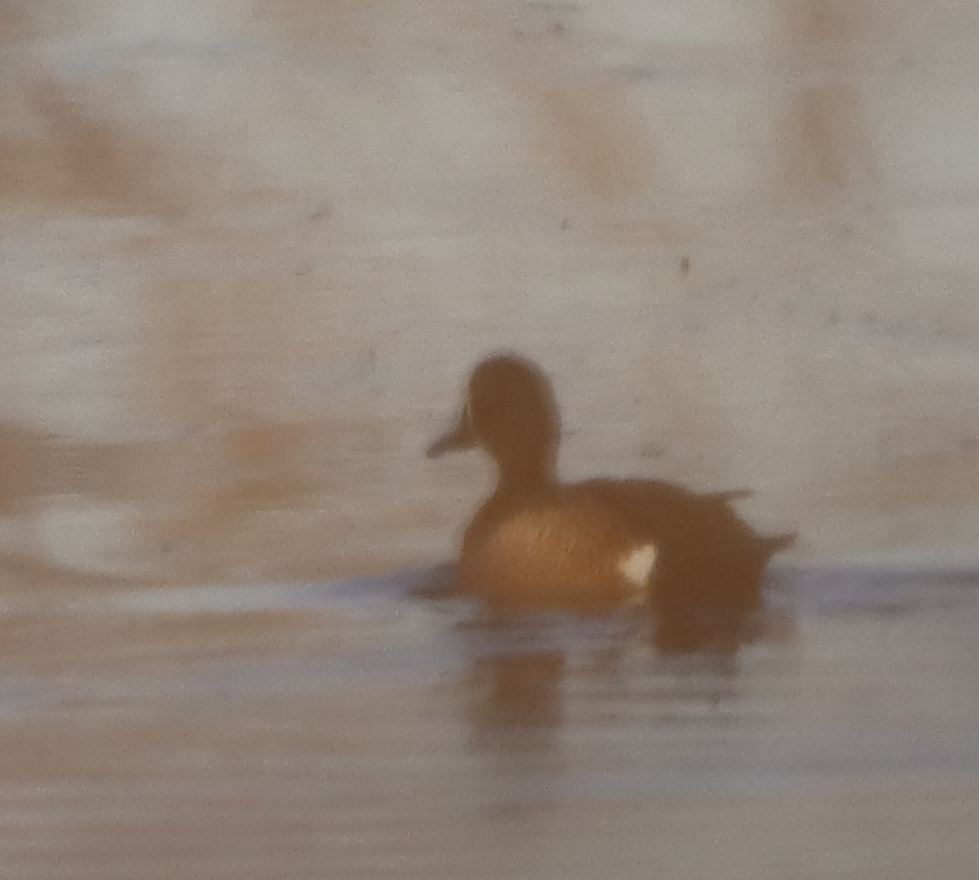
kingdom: Animalia
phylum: Chordata
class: Aves
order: Anseriformes
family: Anatidae
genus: Spatula
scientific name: Spatula discors
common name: Blue-winged teal
